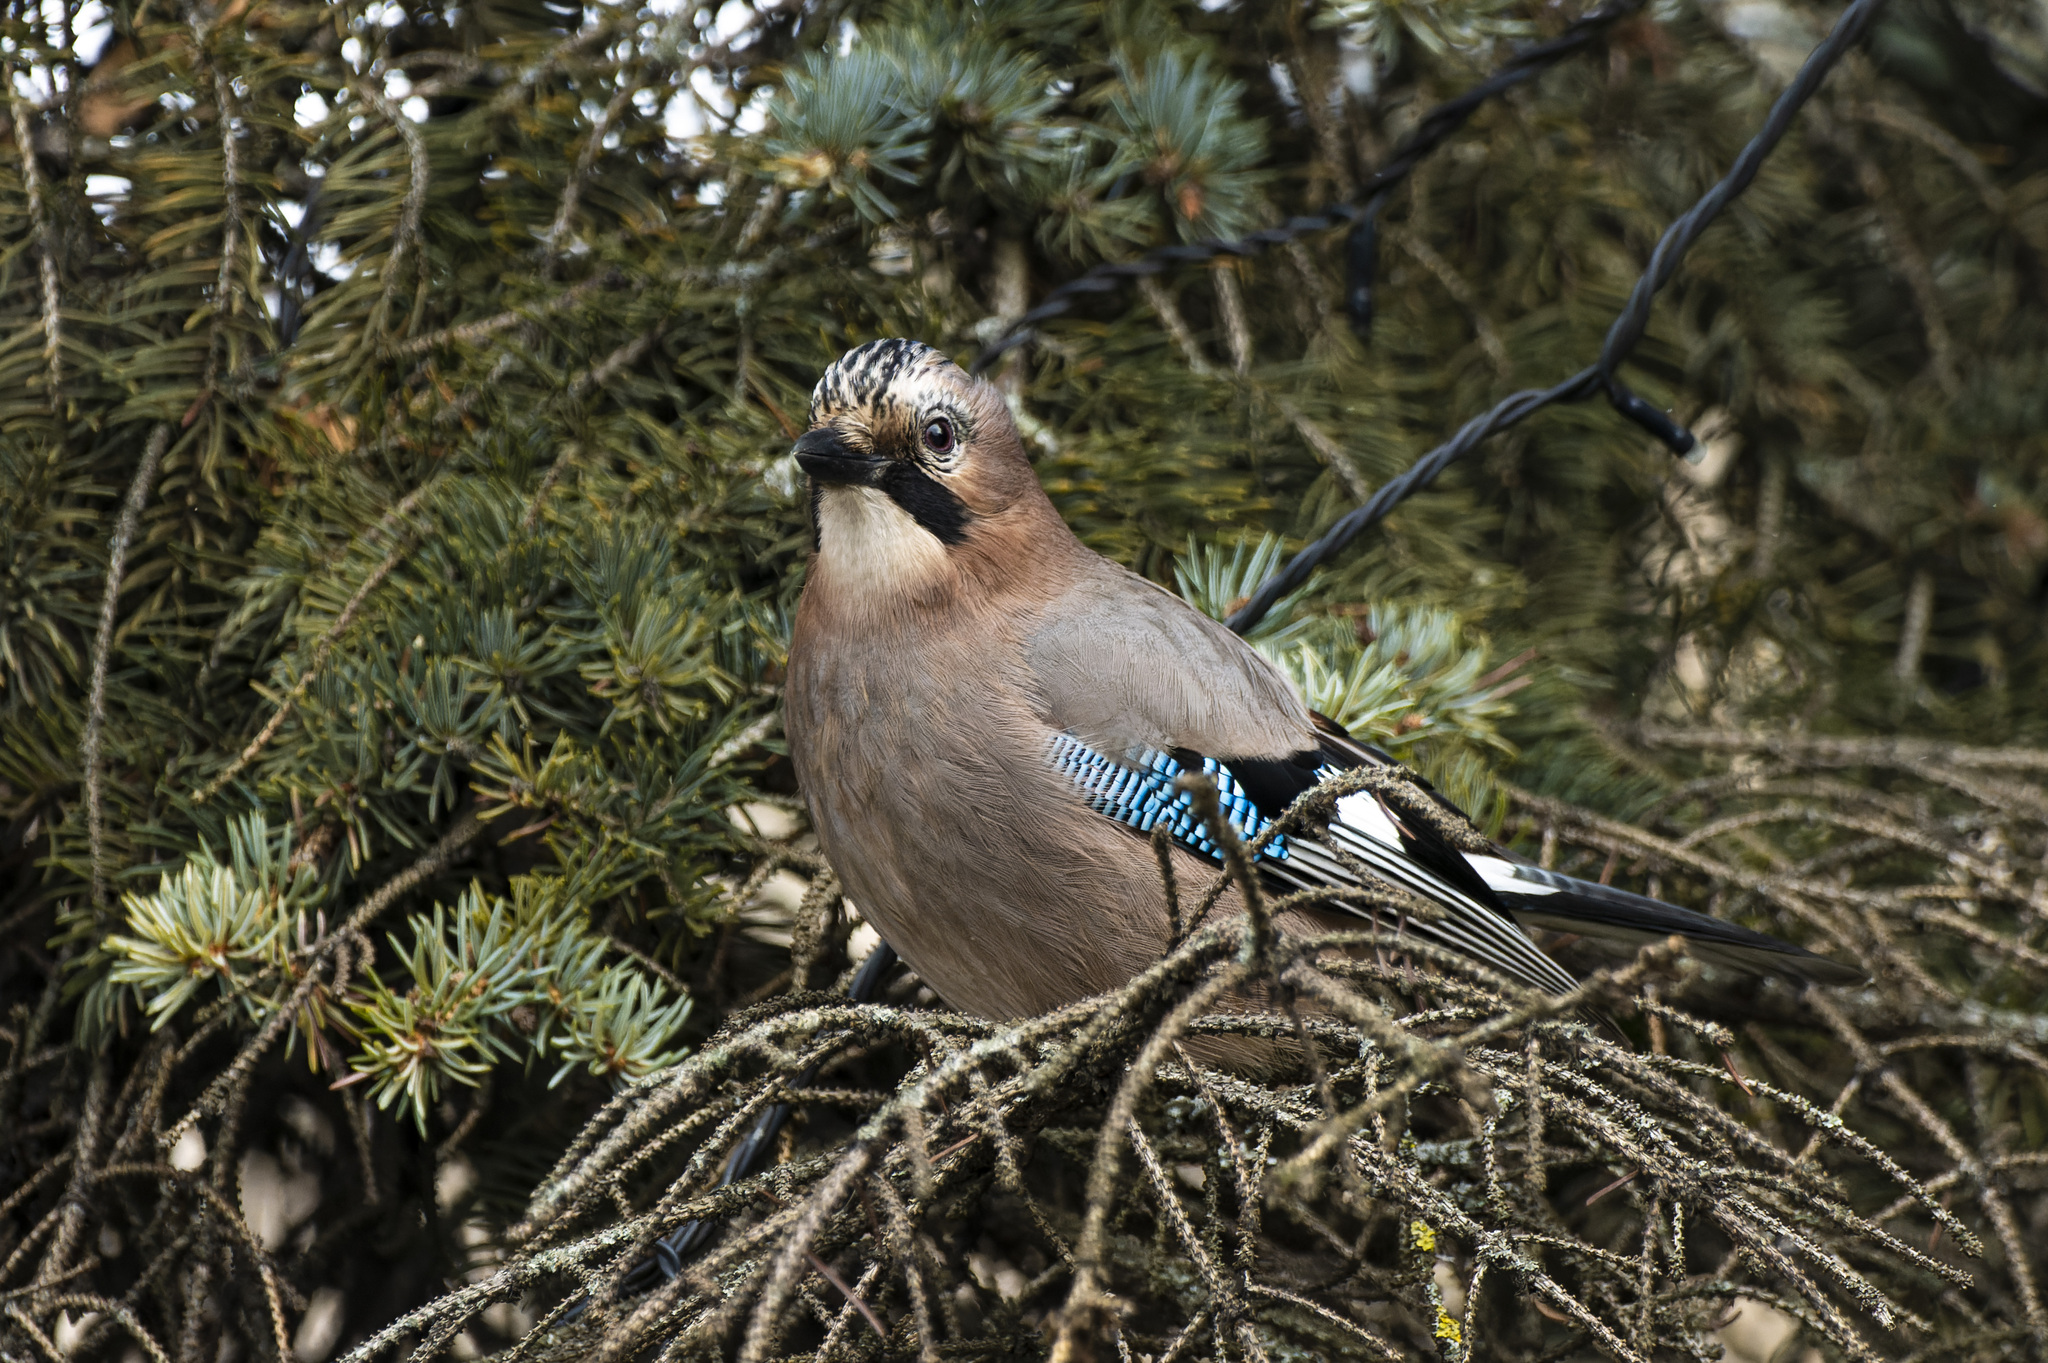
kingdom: Animalia
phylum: Chordata
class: Aves
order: Passeriformes
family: Corvidae
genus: Garrulus
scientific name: Garrulus glandarius
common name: Eurasian jay
